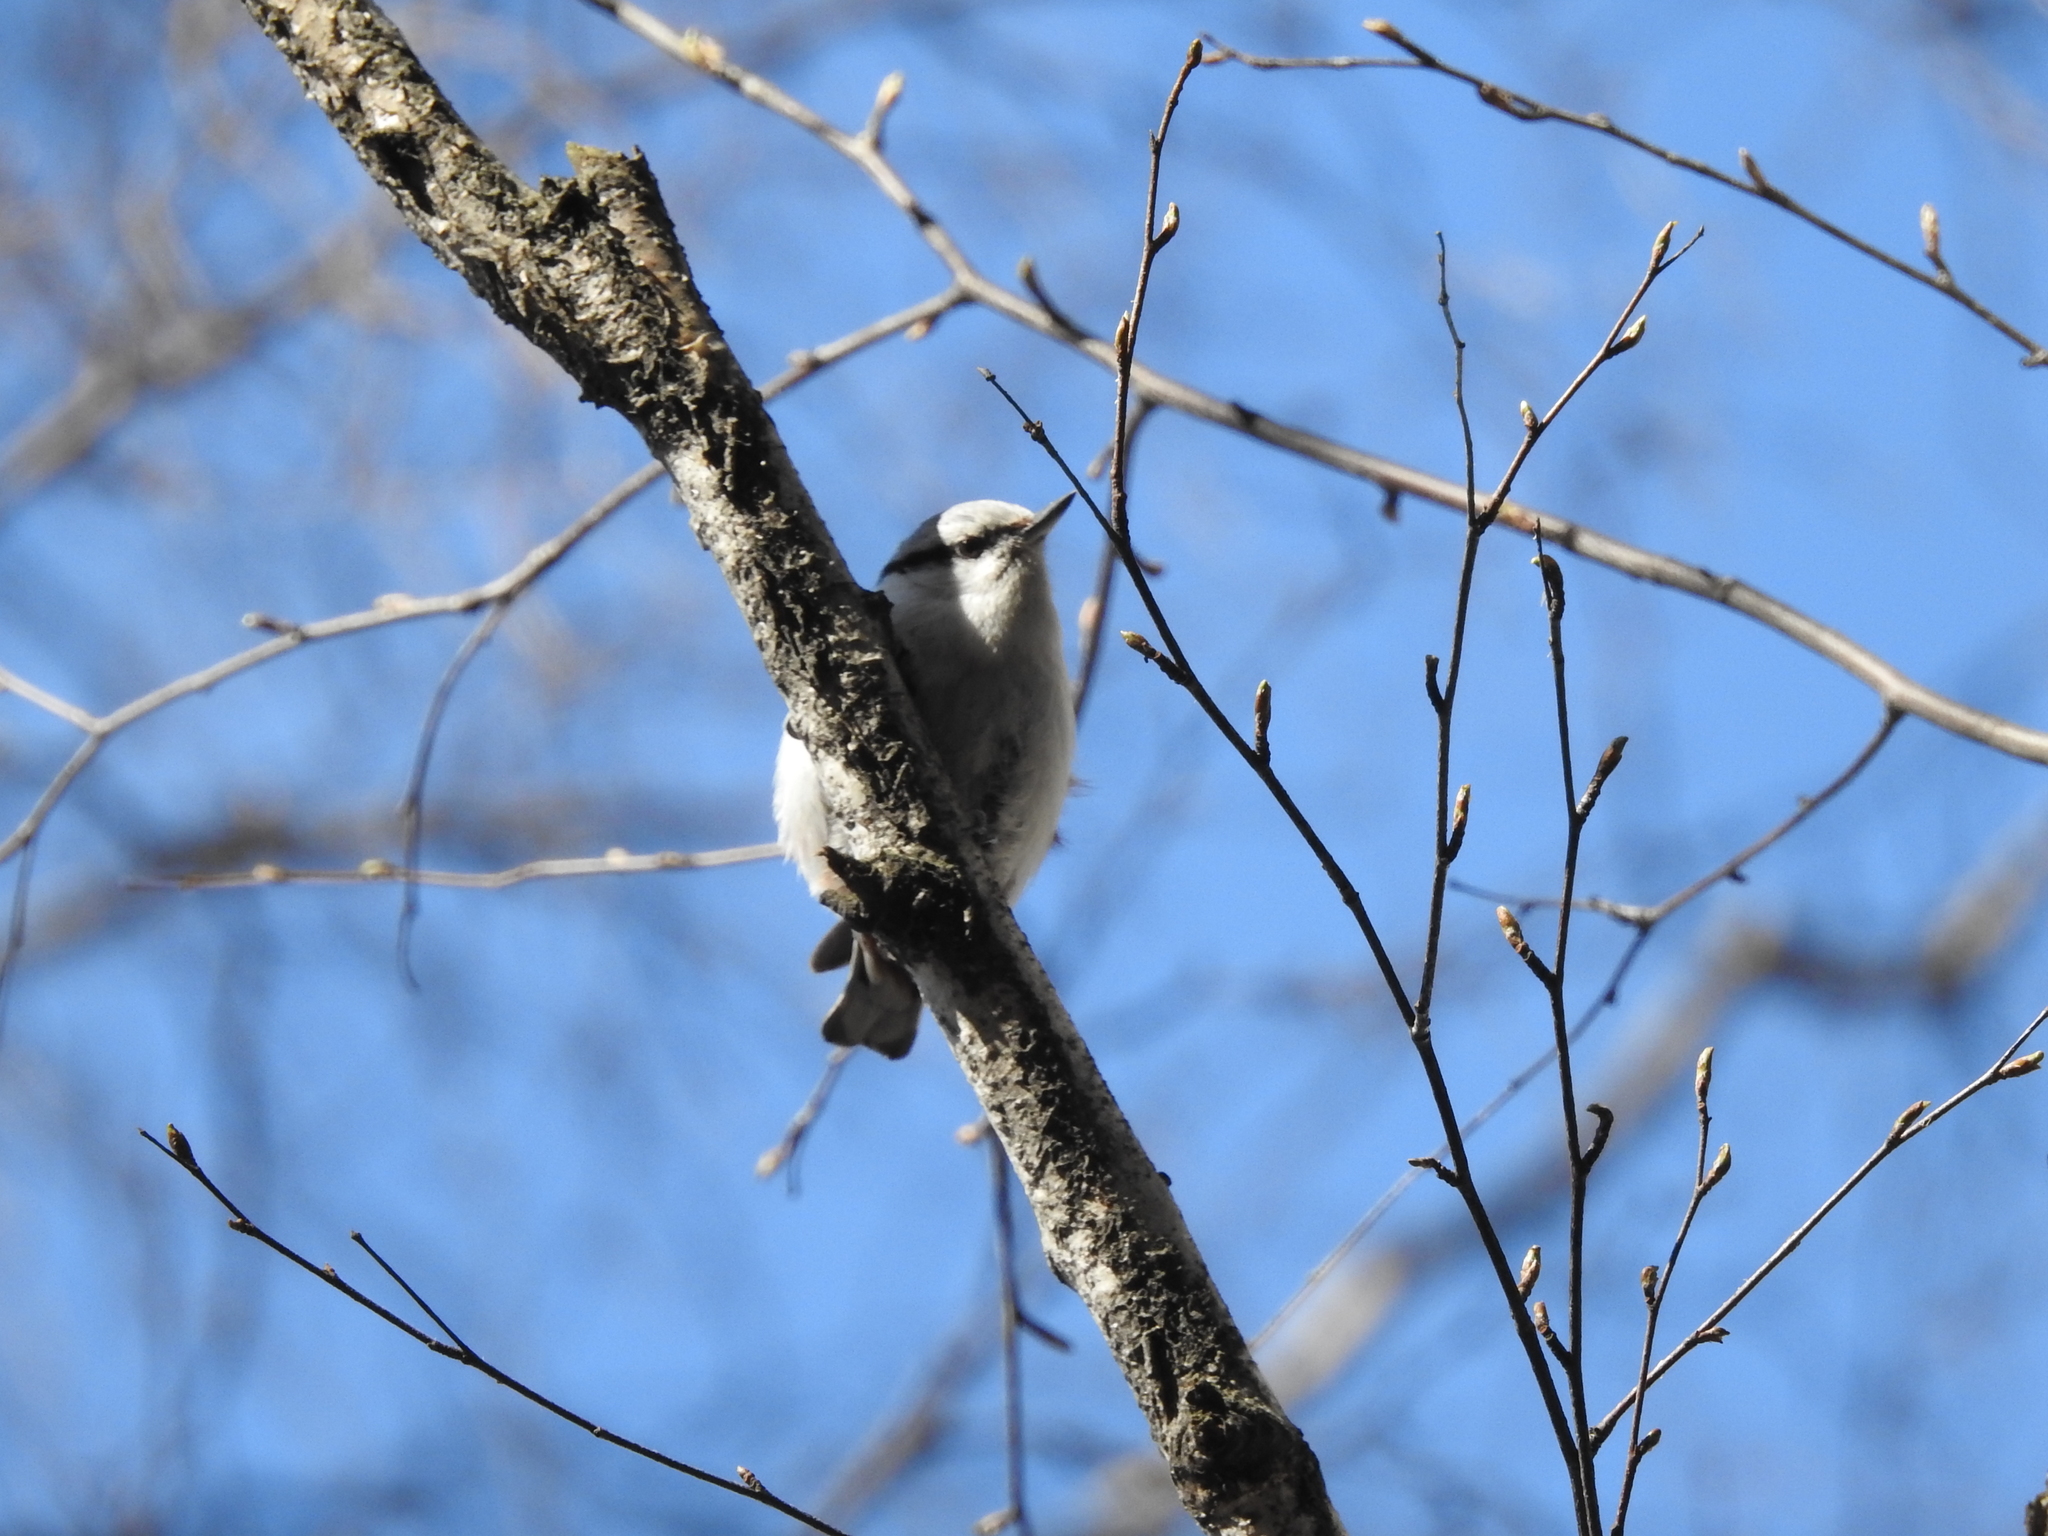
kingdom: Animalia
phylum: Chordata
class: Aves
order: Passeriformes
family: Sittidae
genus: Sitta
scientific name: Sitta europaea
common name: Eurasian nuthatch
